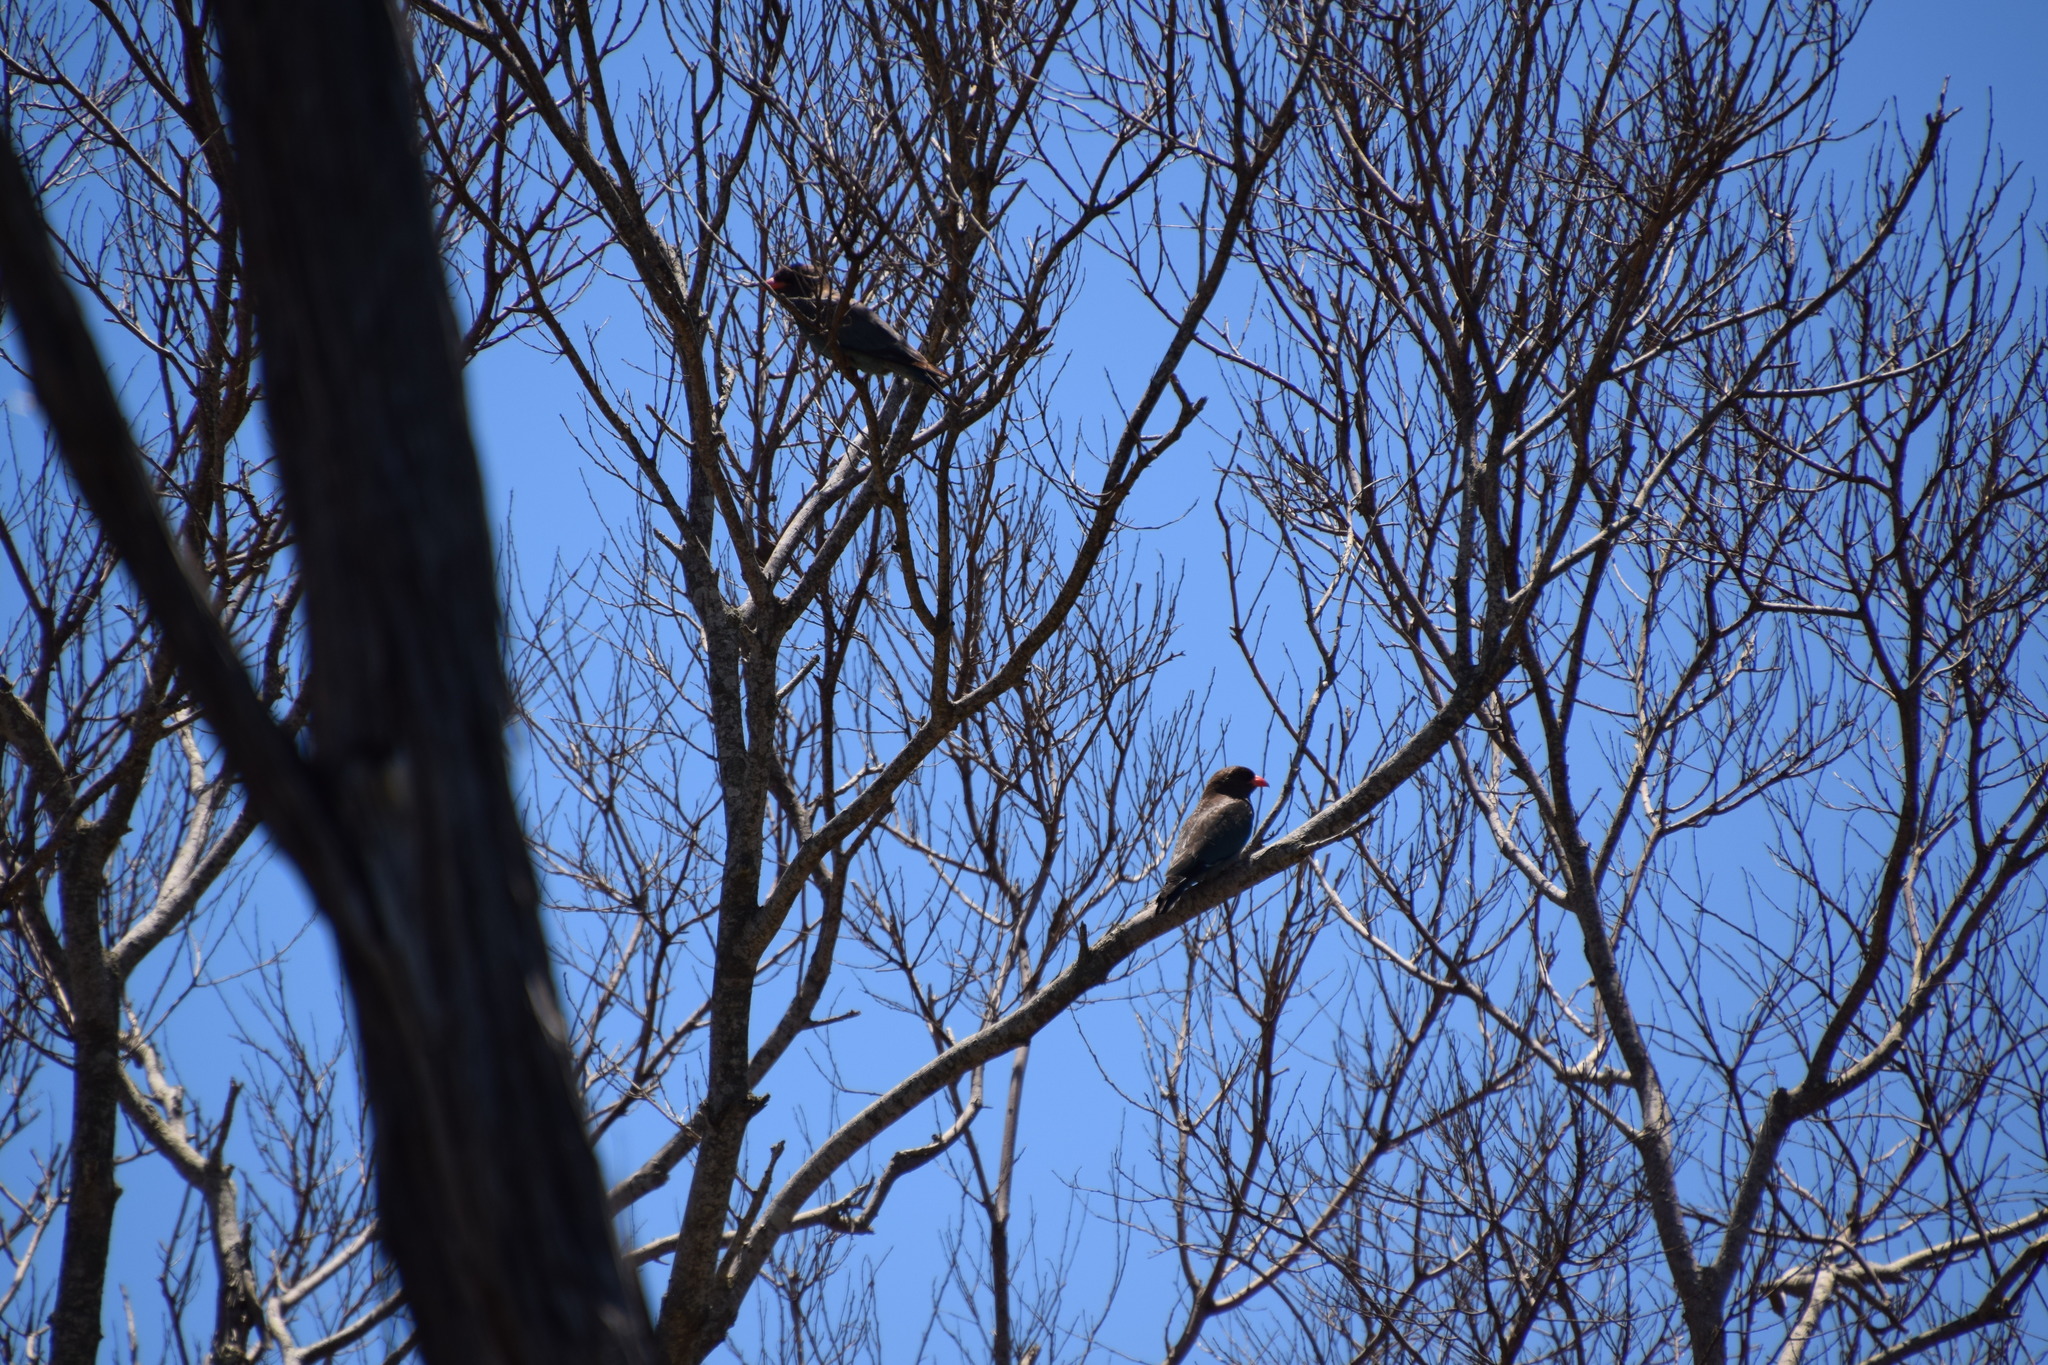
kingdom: Animalia
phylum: Chordata
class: Aves
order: Coraciiformes
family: Coraciidae
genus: Eurystomus
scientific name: Eurystomus orientalis
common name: Oriental dollarbird
